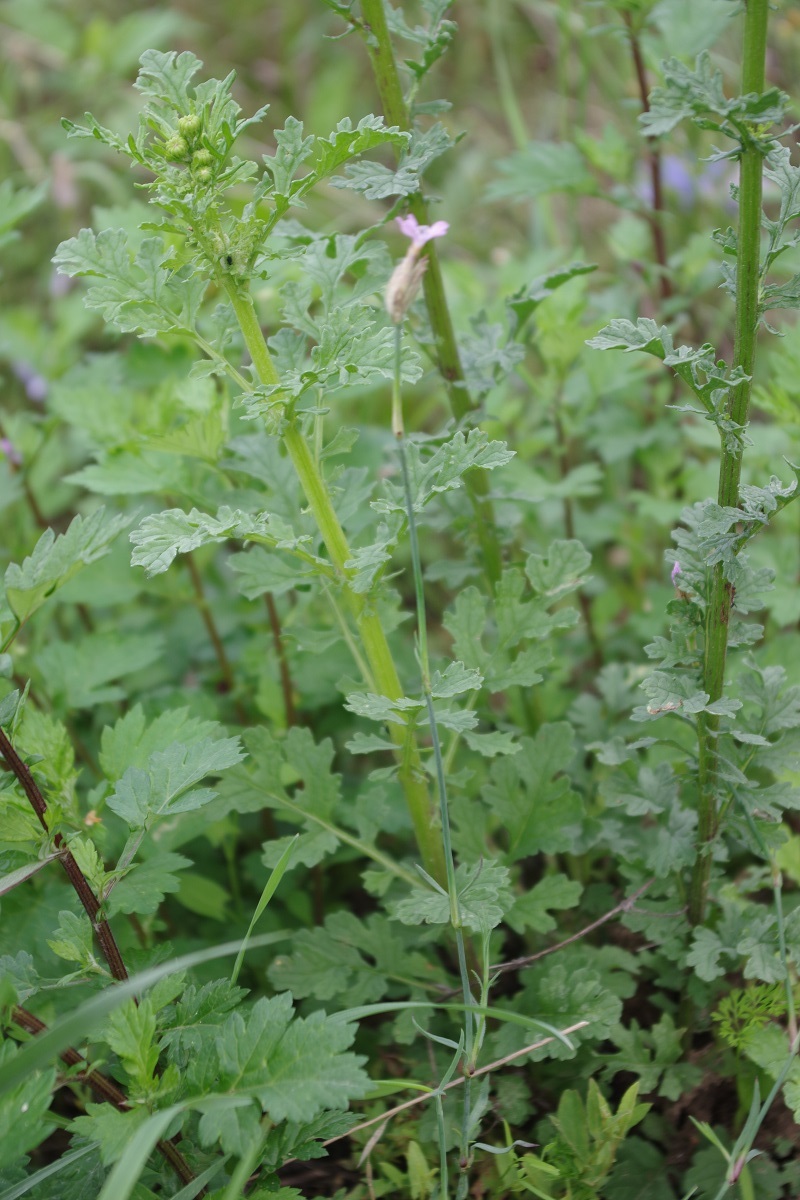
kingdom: Plantae
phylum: Tracheophyta
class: Magnoliopsida
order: Caryophyllales
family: Caryophyllaceae
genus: Petrorhagia
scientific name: Petrorhagia prolifera
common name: Proliferous pink
